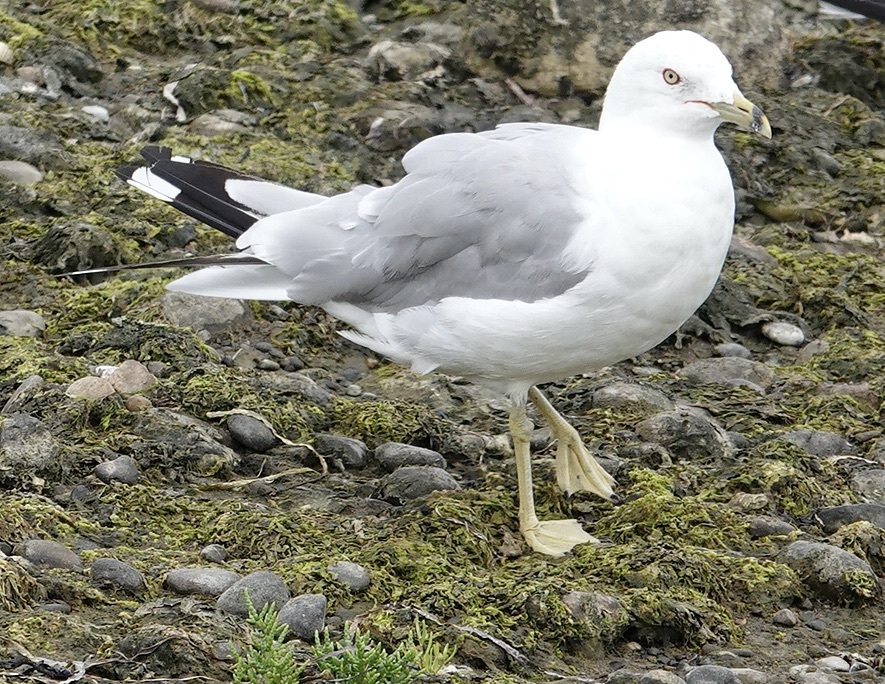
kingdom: Animalia
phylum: Chordata
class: Aves
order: Charadriiformes
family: Laridae
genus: Larus
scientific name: Larus delawarensis
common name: Ring-billed gull
